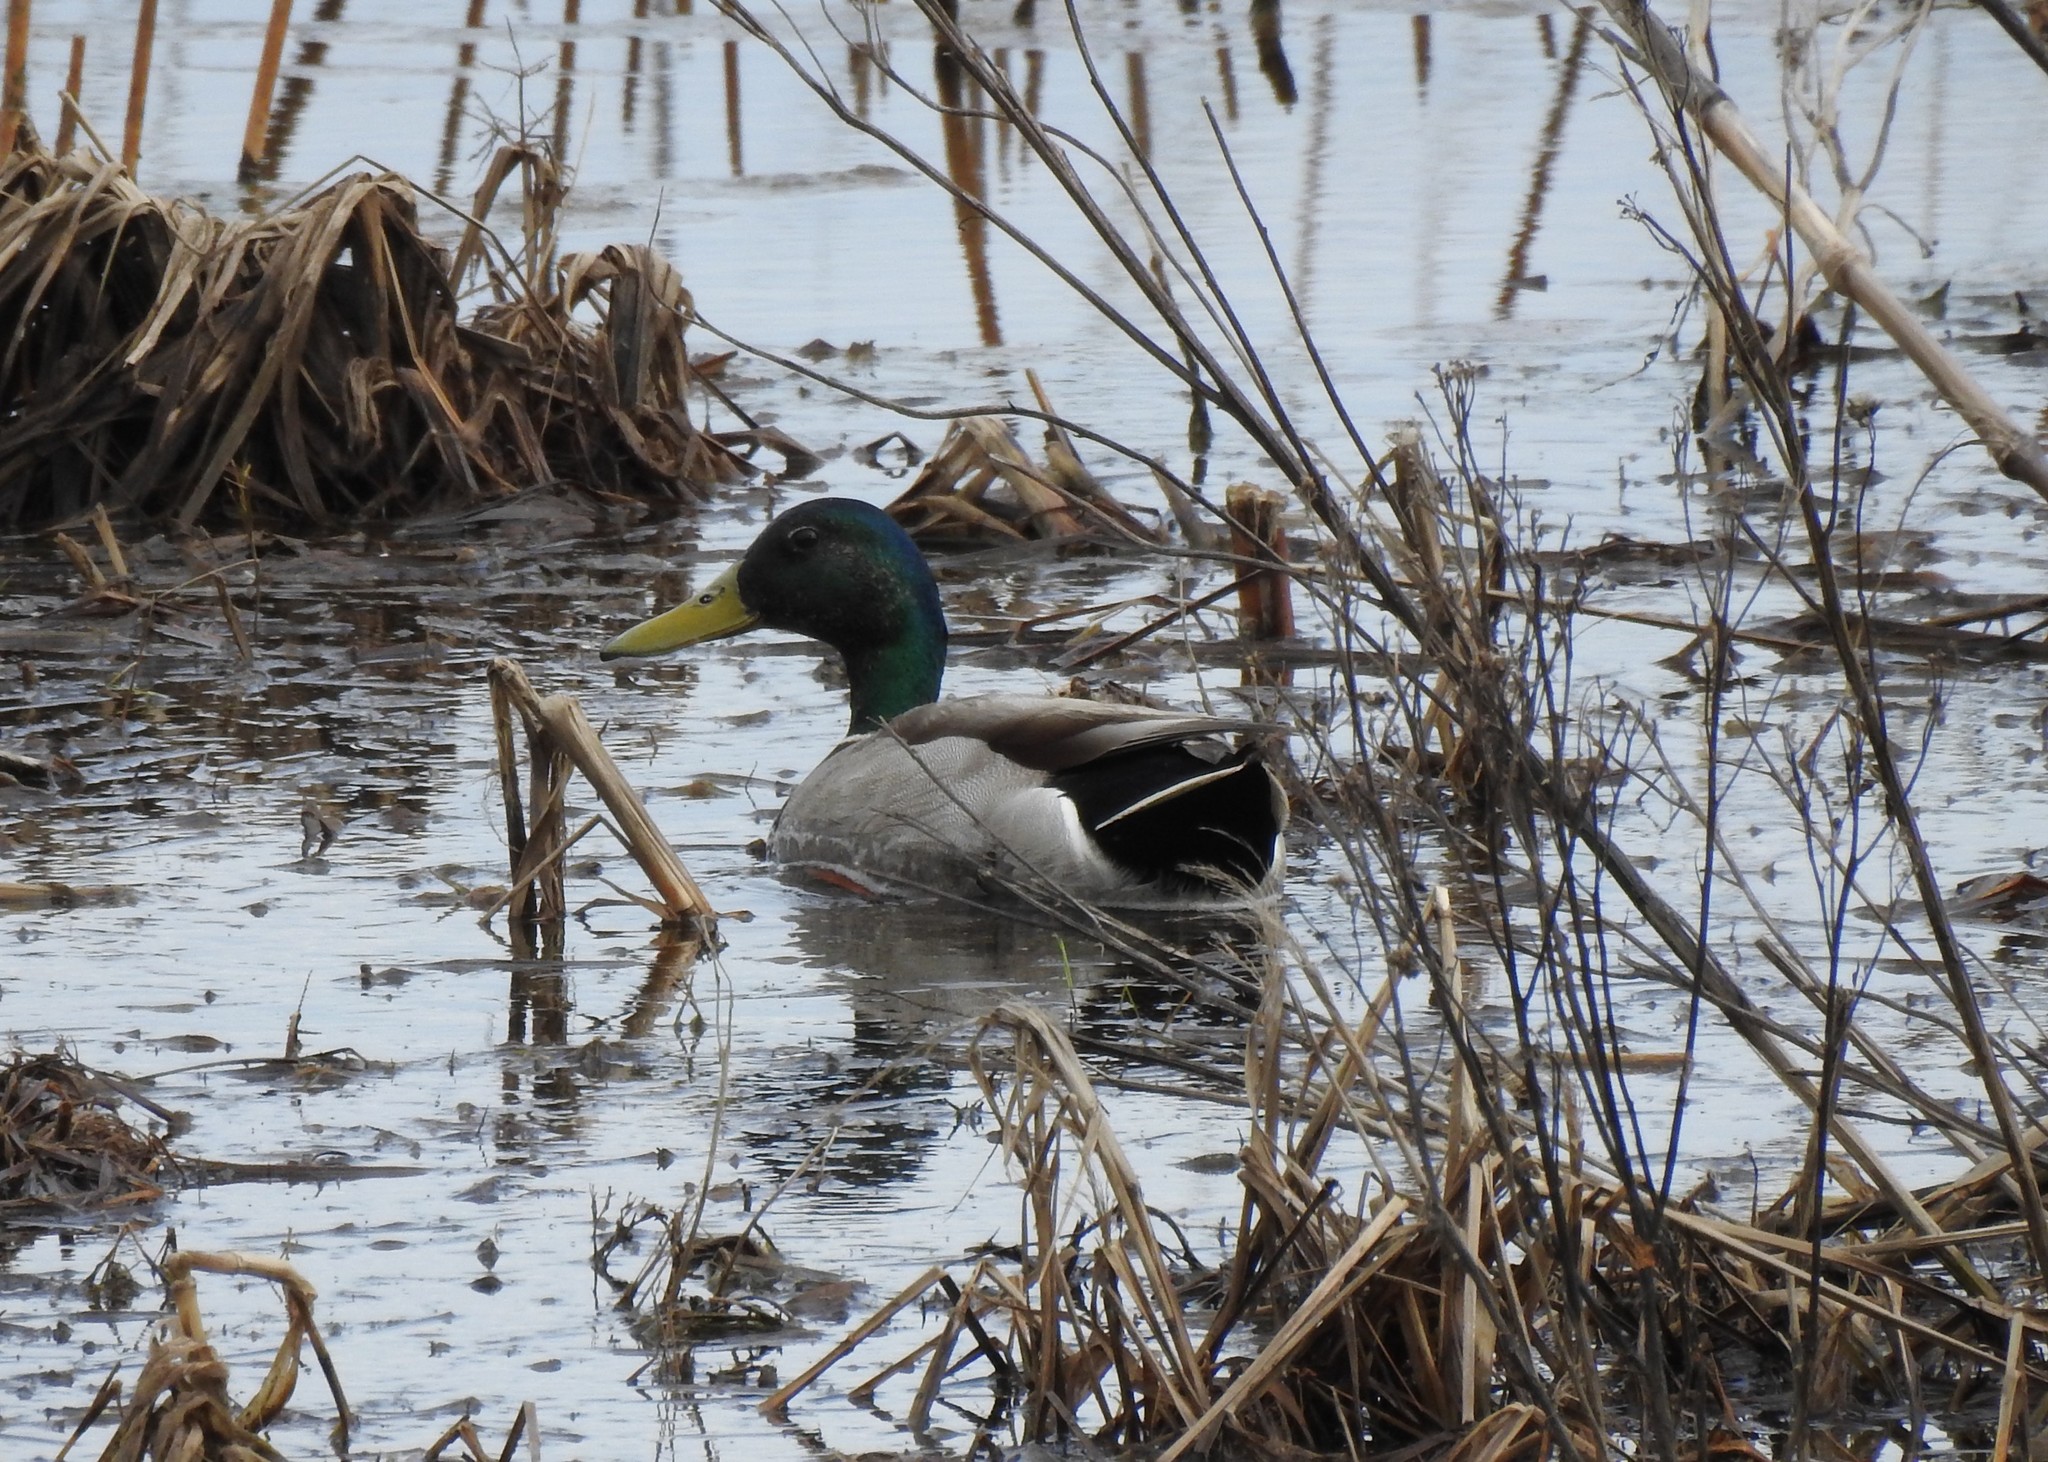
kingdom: Animalia
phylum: Chordata
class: Aves
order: Anseriformes
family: Anatidae
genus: Anas
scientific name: Anas platyrhynchos
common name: Mallard
